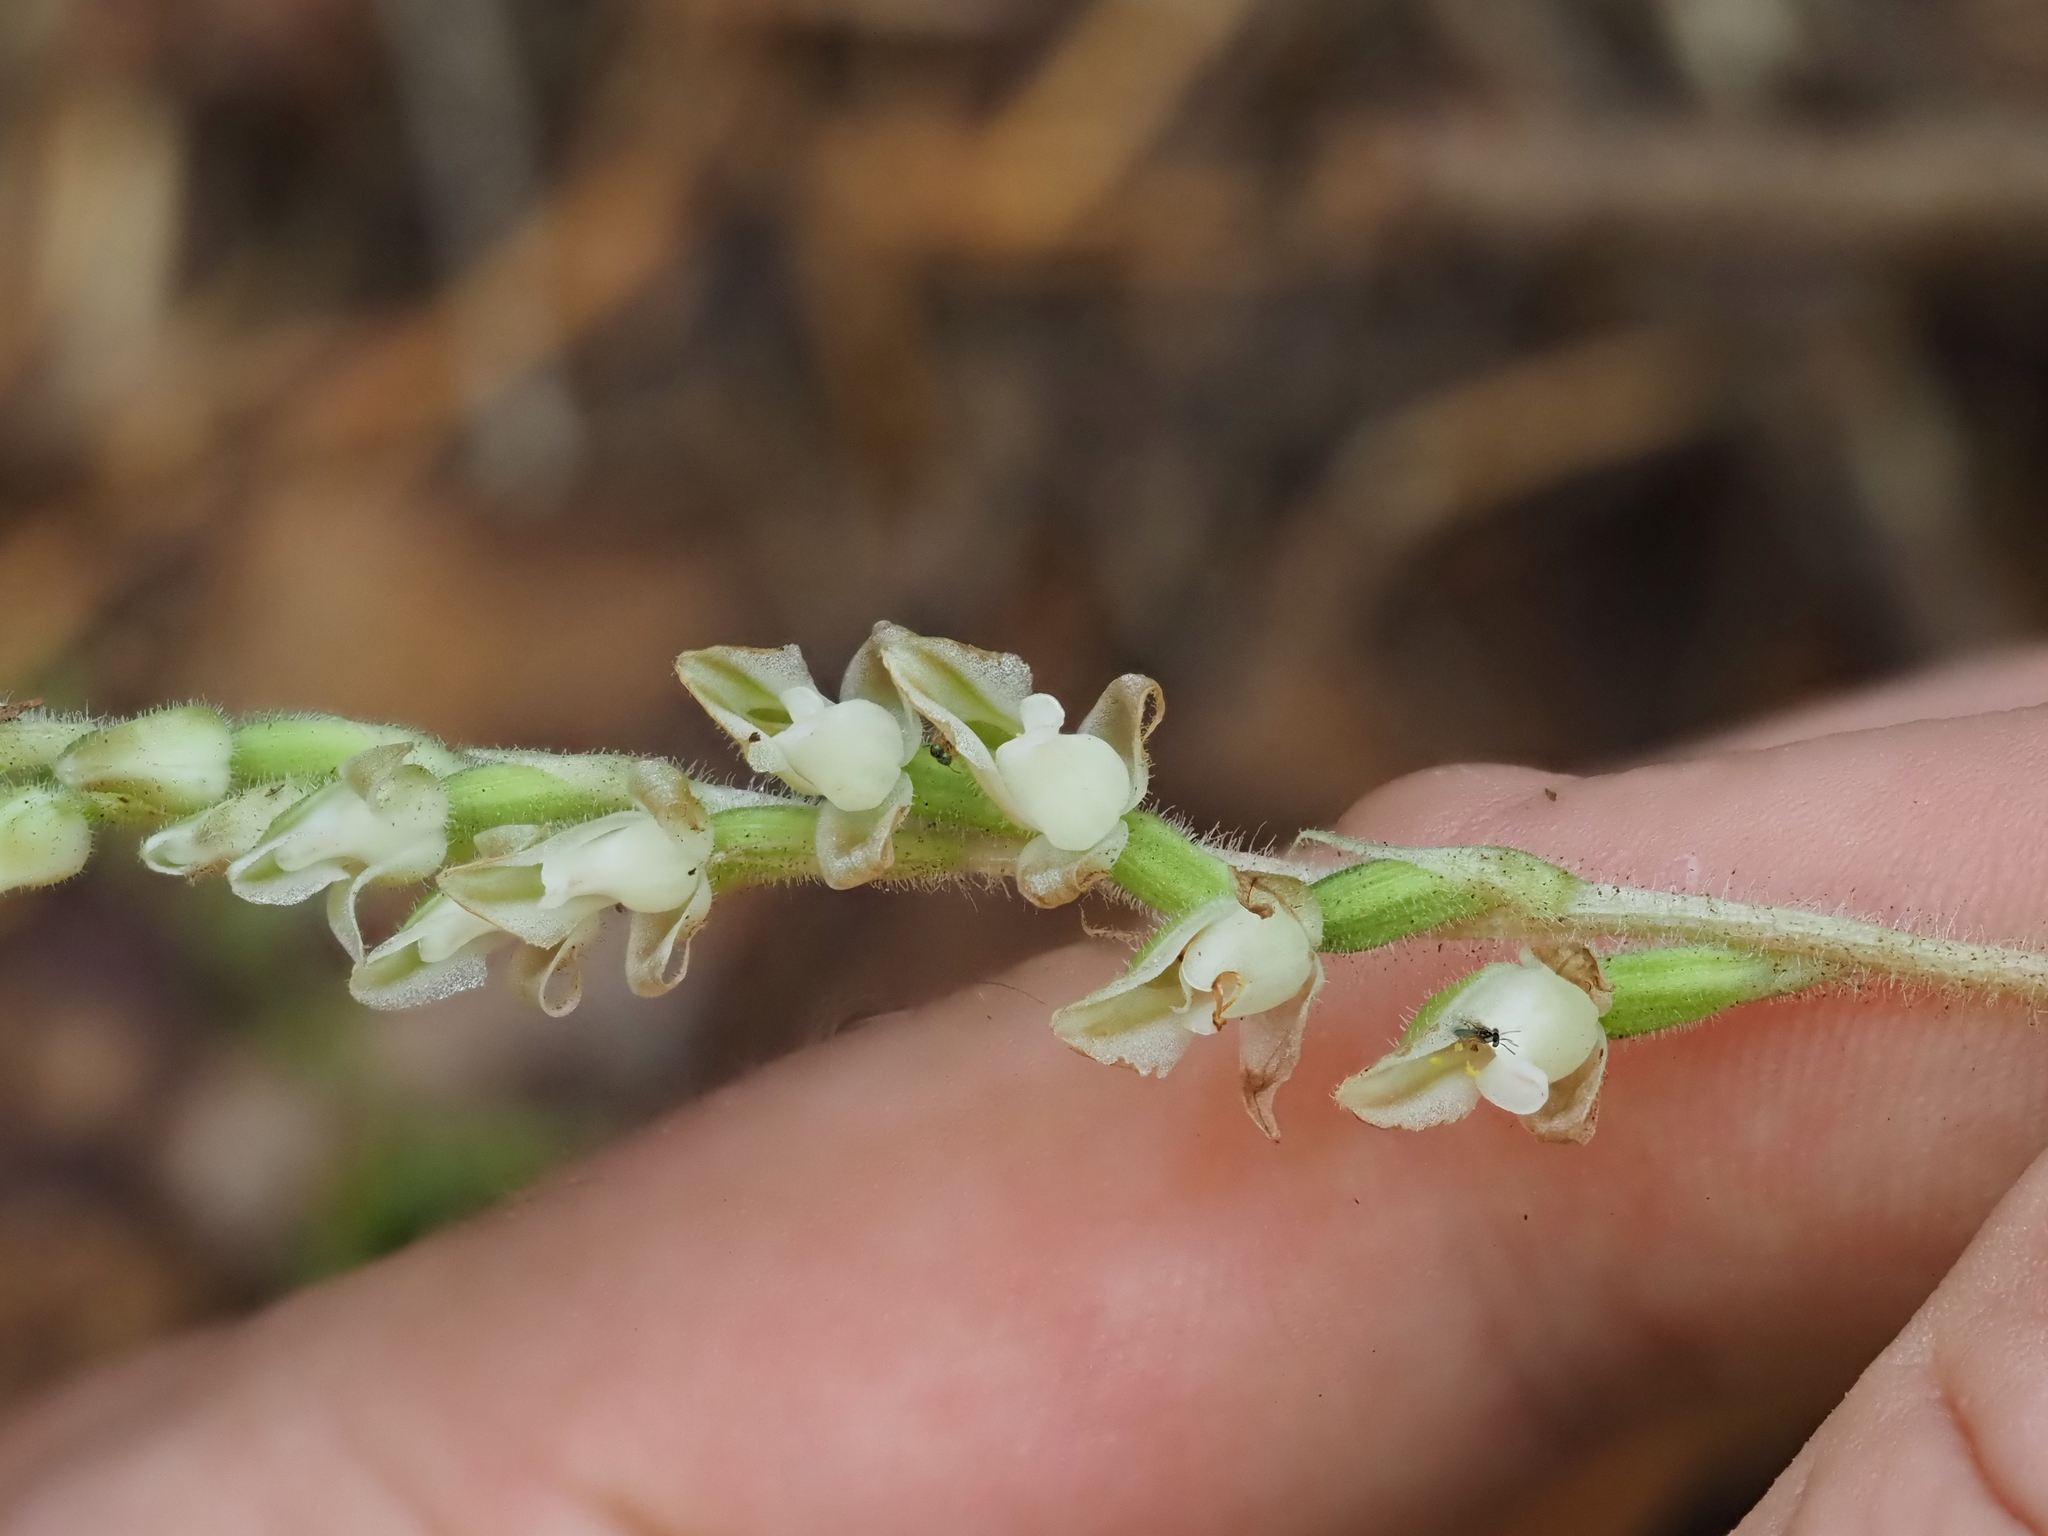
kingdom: Plantae
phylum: Tracheophyta
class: Liliopsida
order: Asparagales
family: Orchidaceae
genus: Goodyera
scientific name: Goodyera oblongifolia
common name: Giant rattlesnake-plantain
